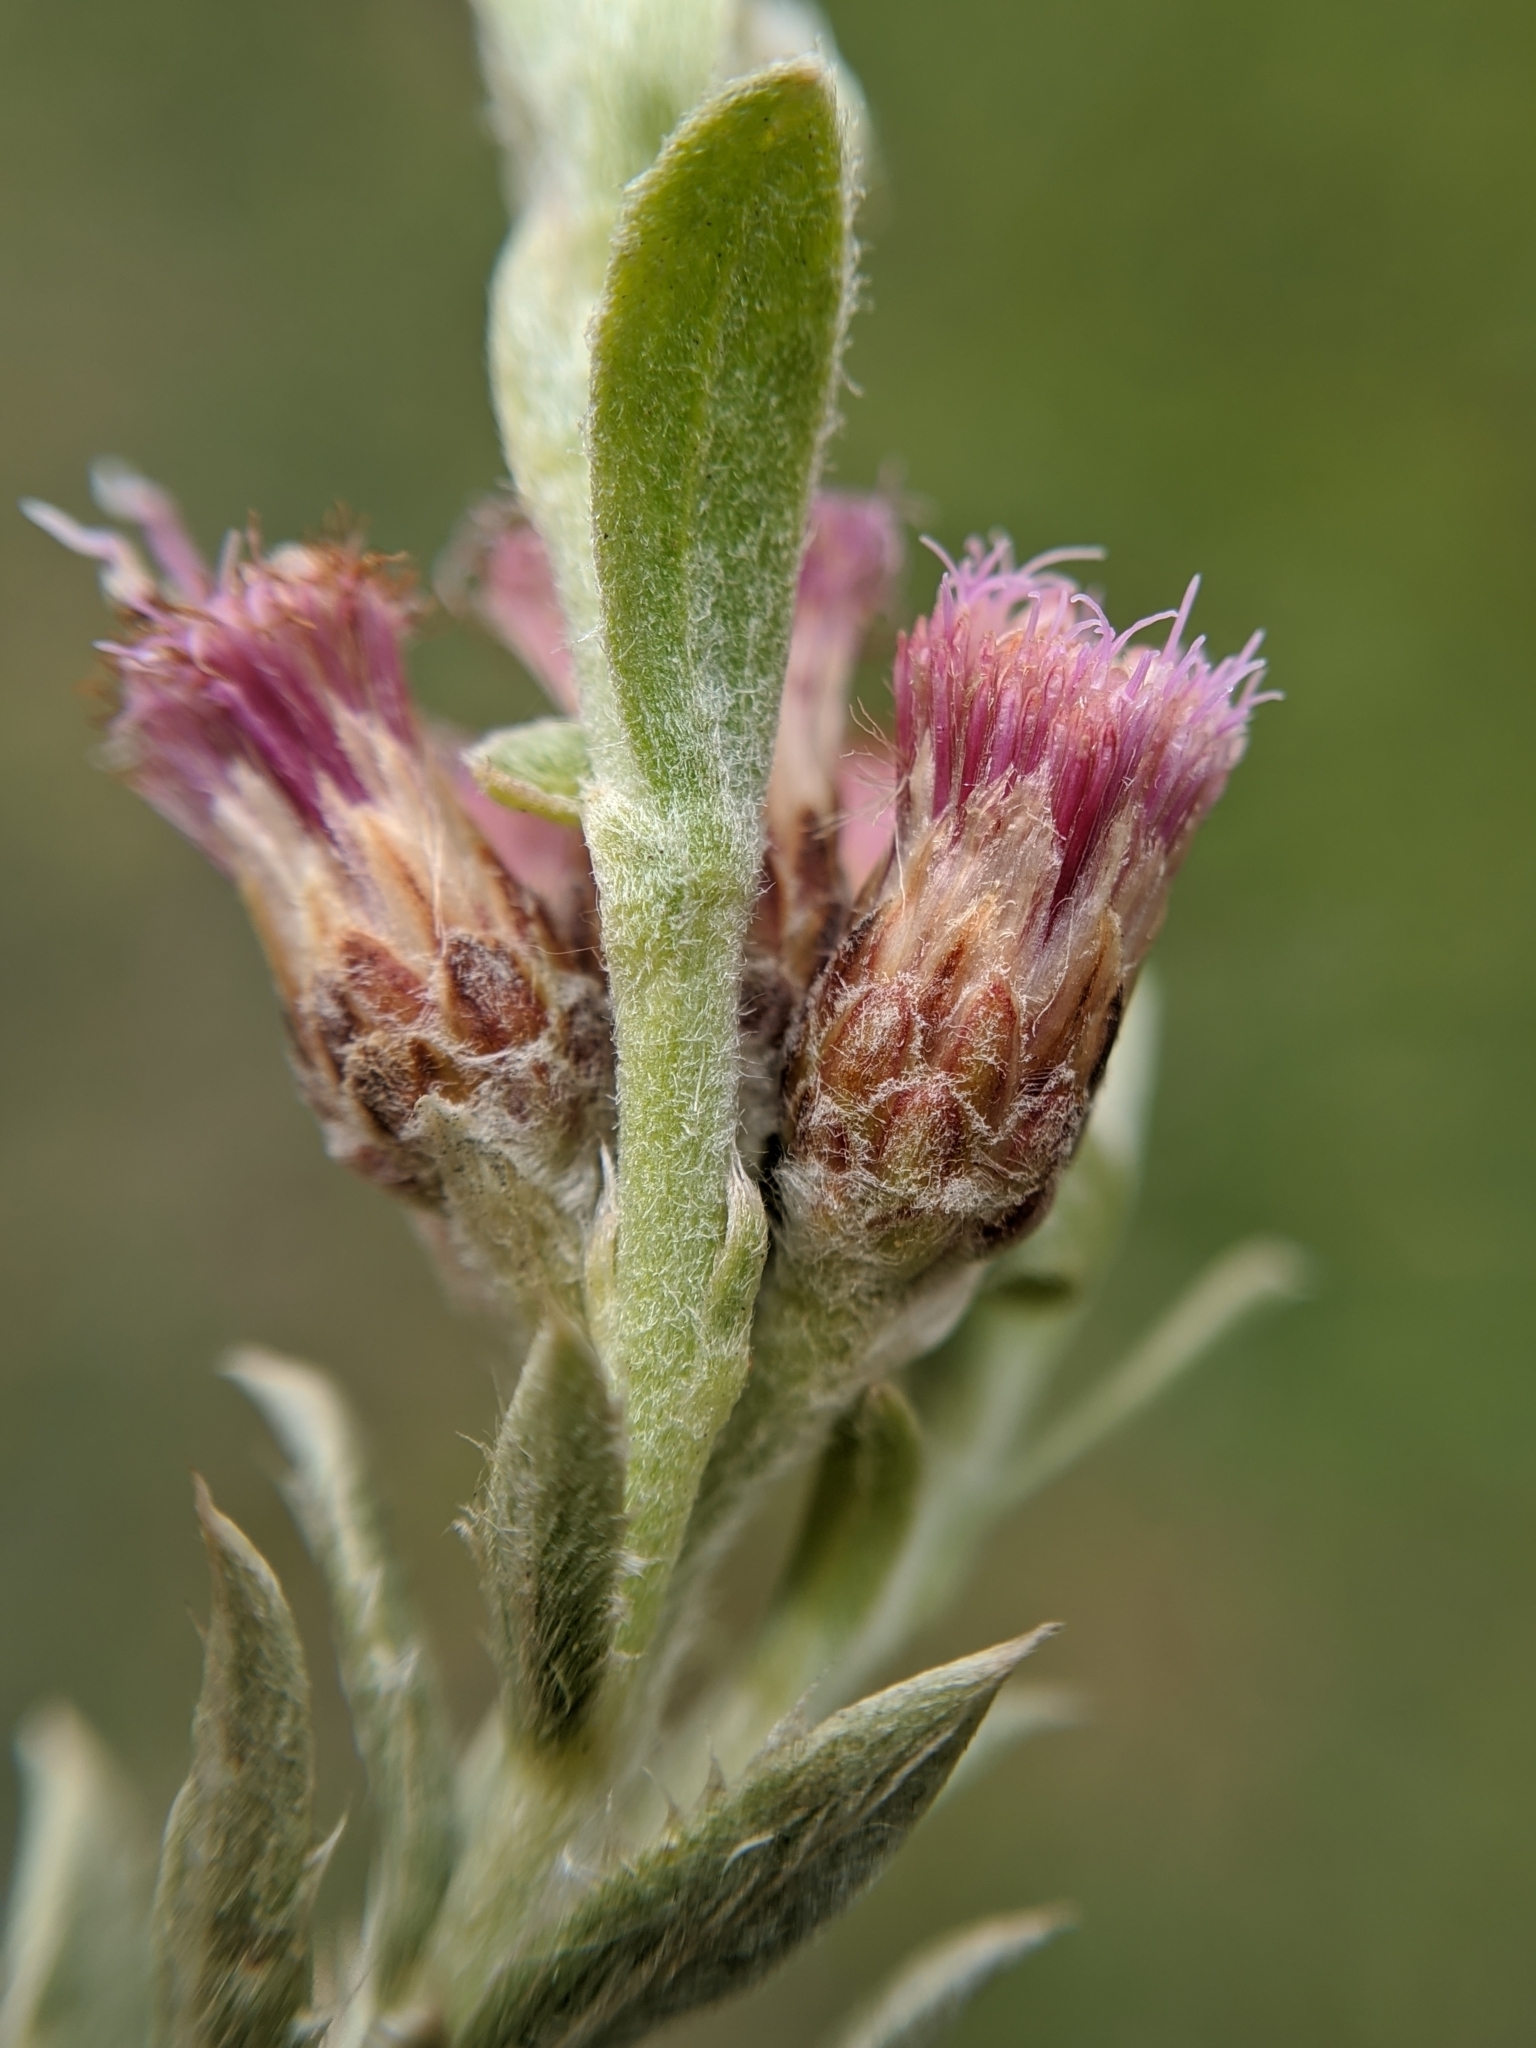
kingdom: Plantae
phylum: Tracheophyta
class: Magnoliopsida
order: Asterales
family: Asteraceae
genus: Pluchea
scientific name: Pluchea sericea
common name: Arrow-weed
